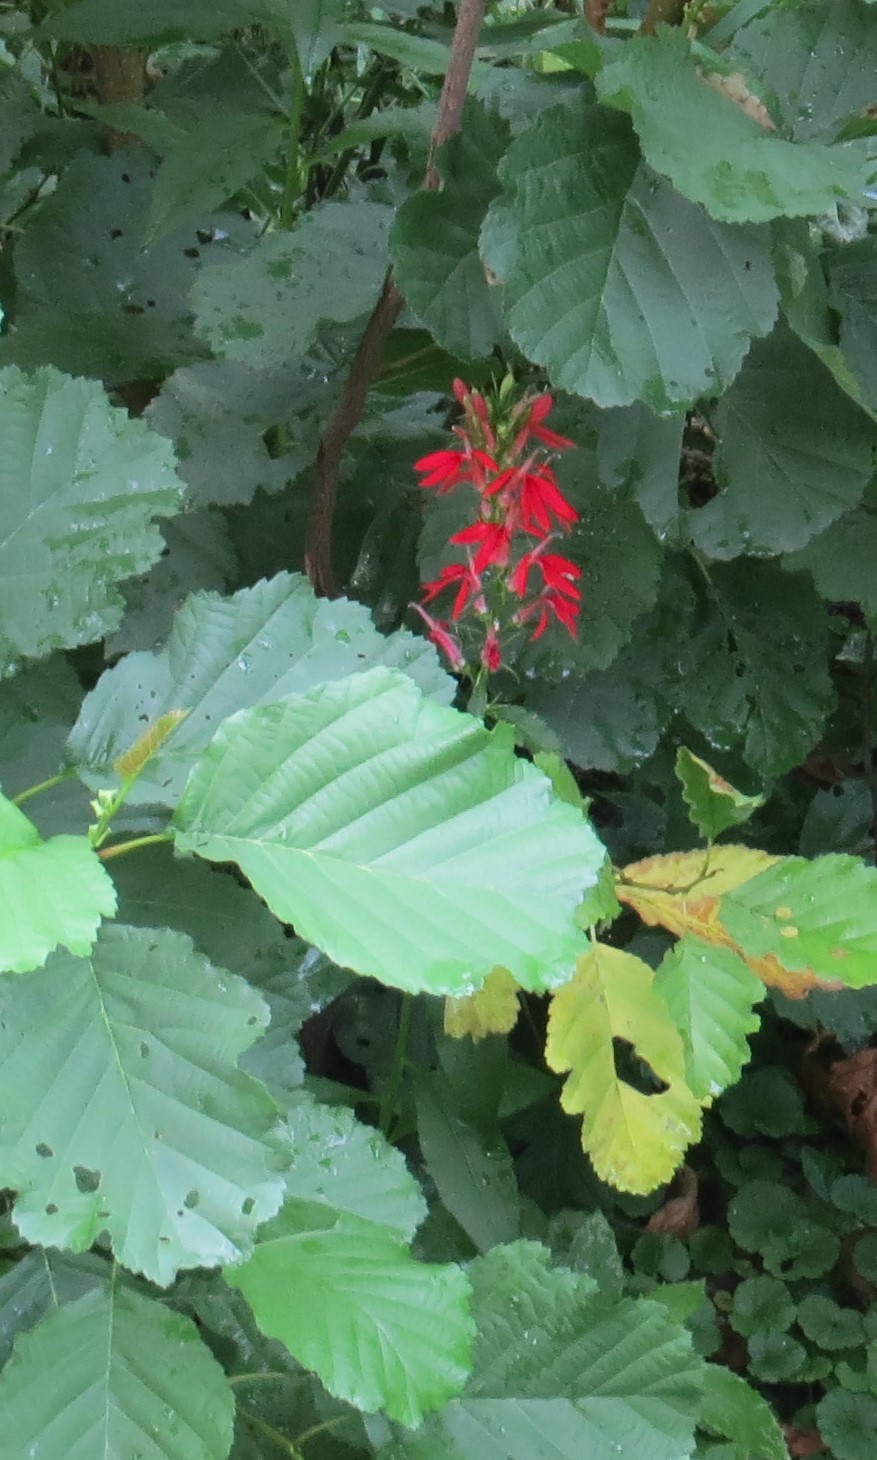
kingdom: Plantae
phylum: Tracheophyta
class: Magnoliopsida
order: Asterales
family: Campanulaceae
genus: Lobelia
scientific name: Lobelia cardinalis
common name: Cardinal flower
